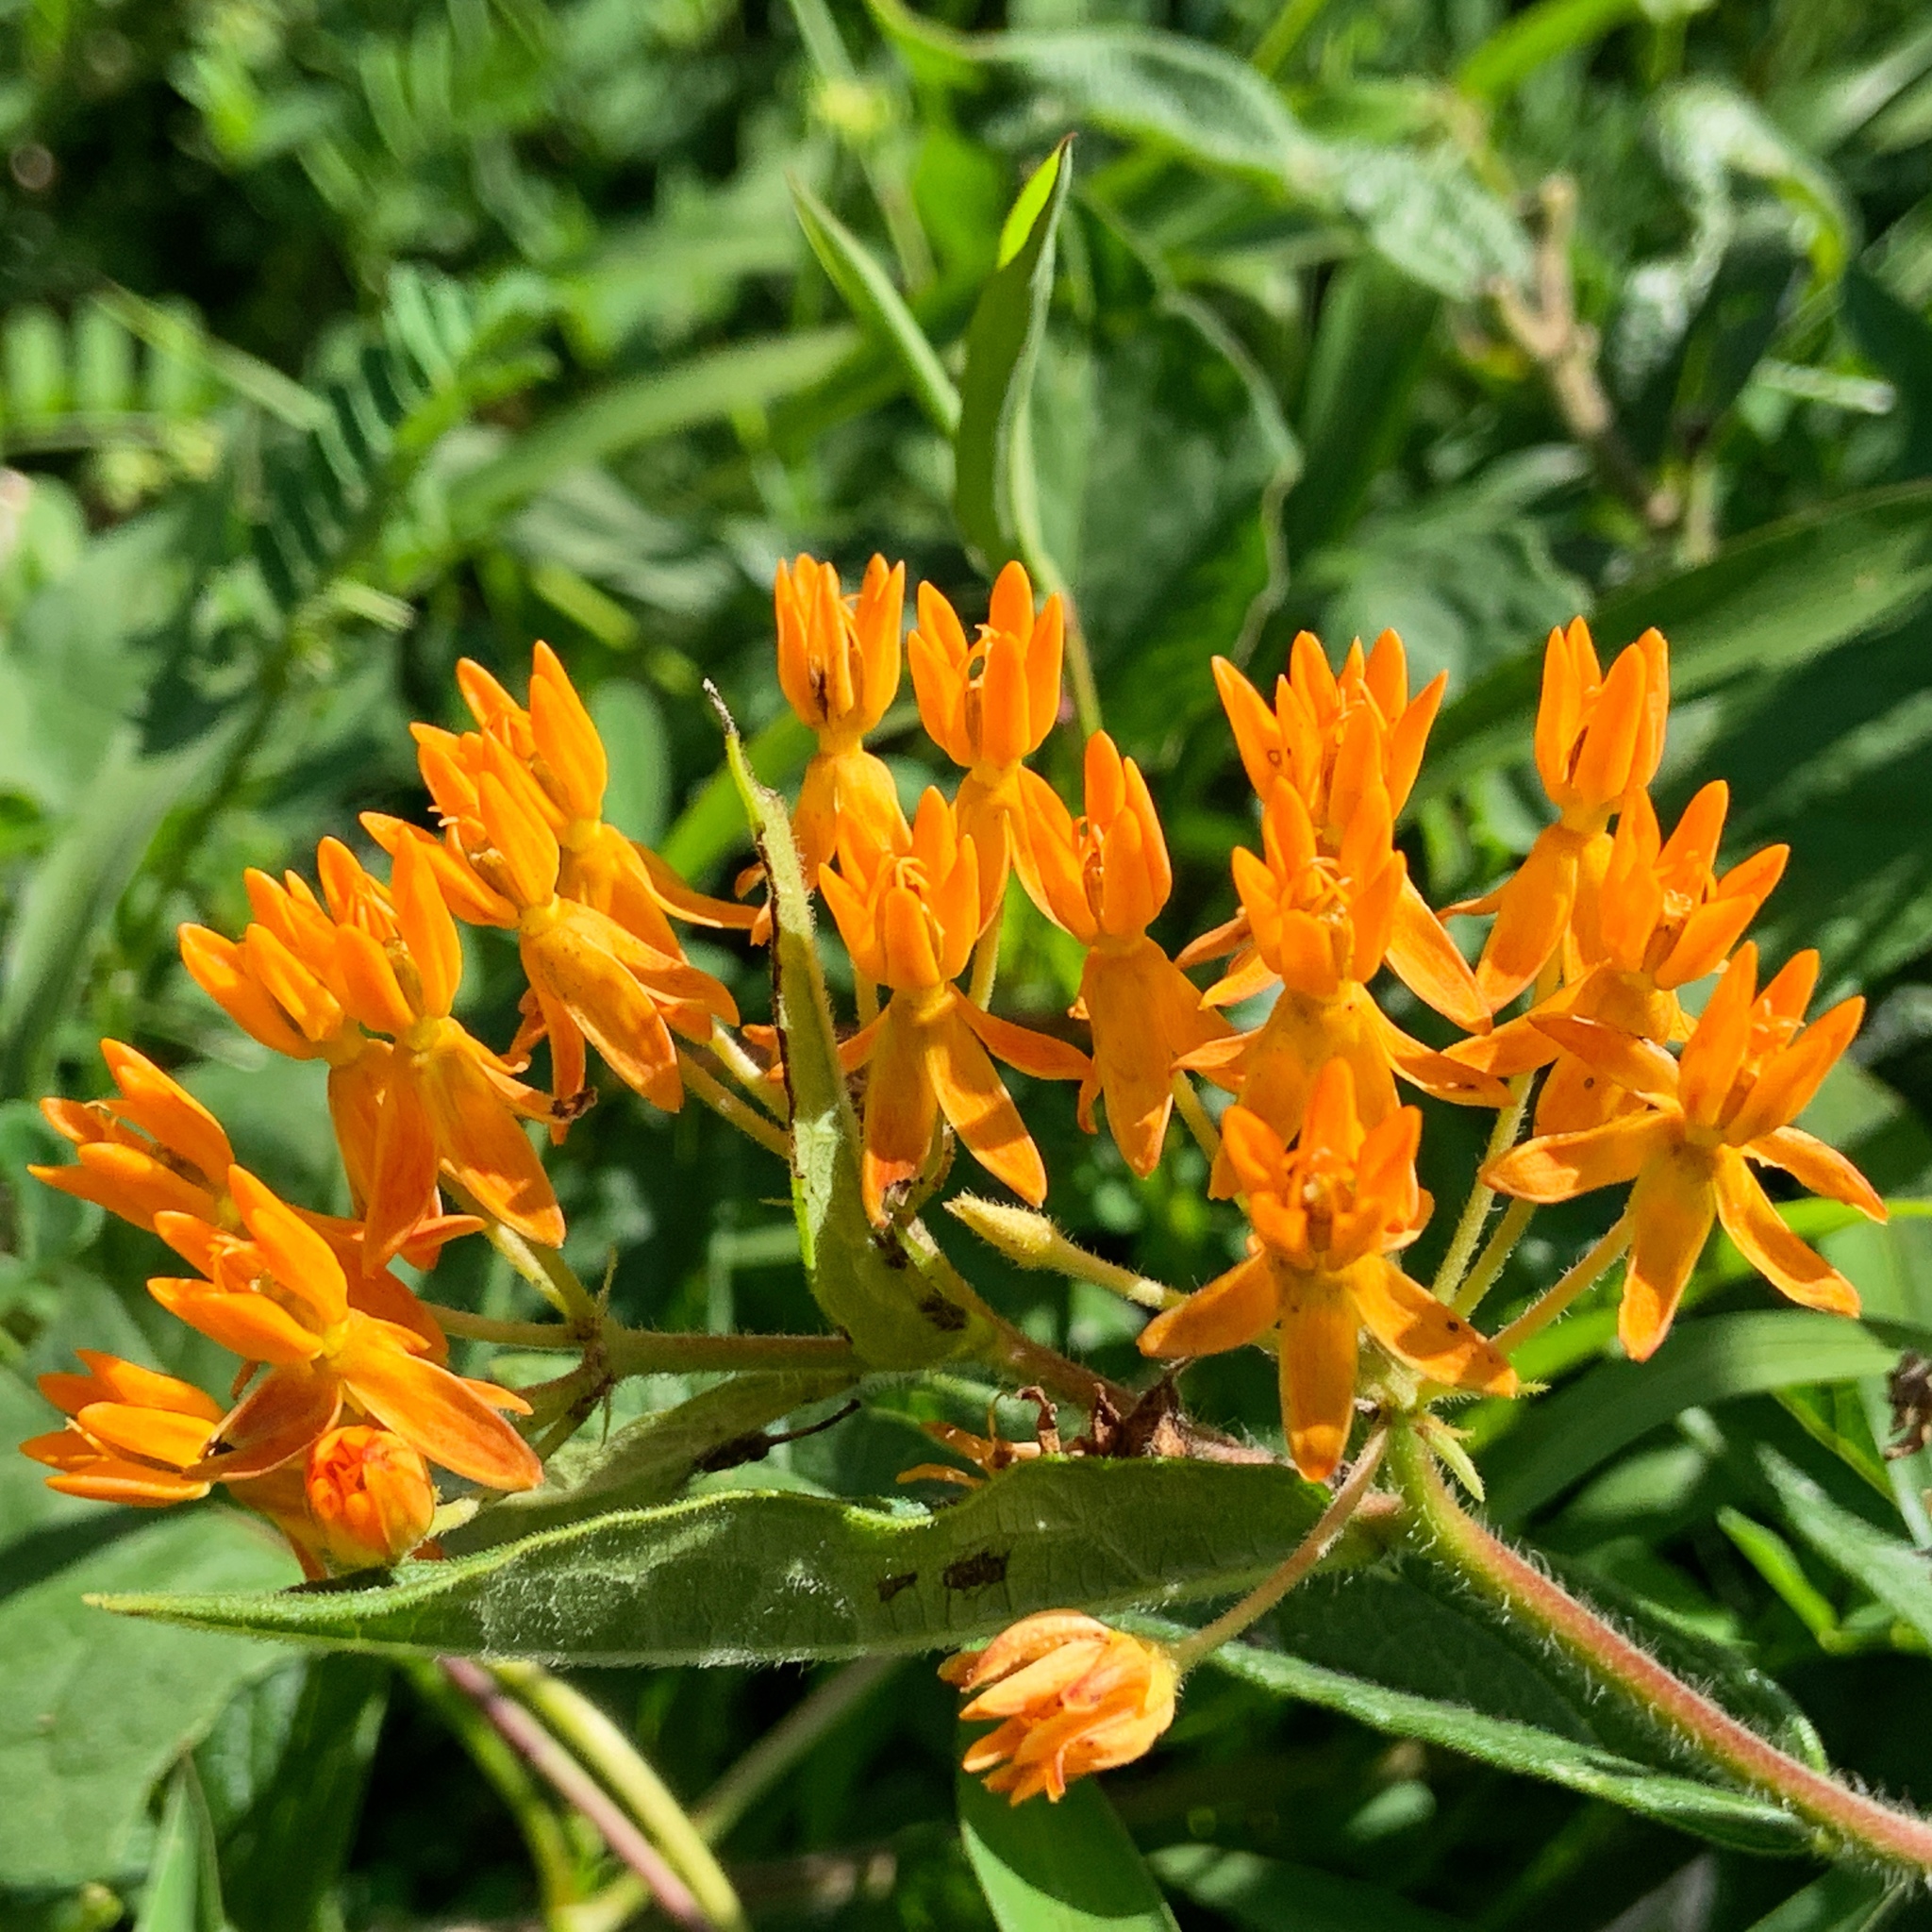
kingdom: Plantae
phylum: Tracheophyta
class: Magnoliopsida
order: Gentianales
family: Apocynaceae
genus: Asclepias
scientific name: Asclepias tuberosa
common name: Butterfly milkweed
